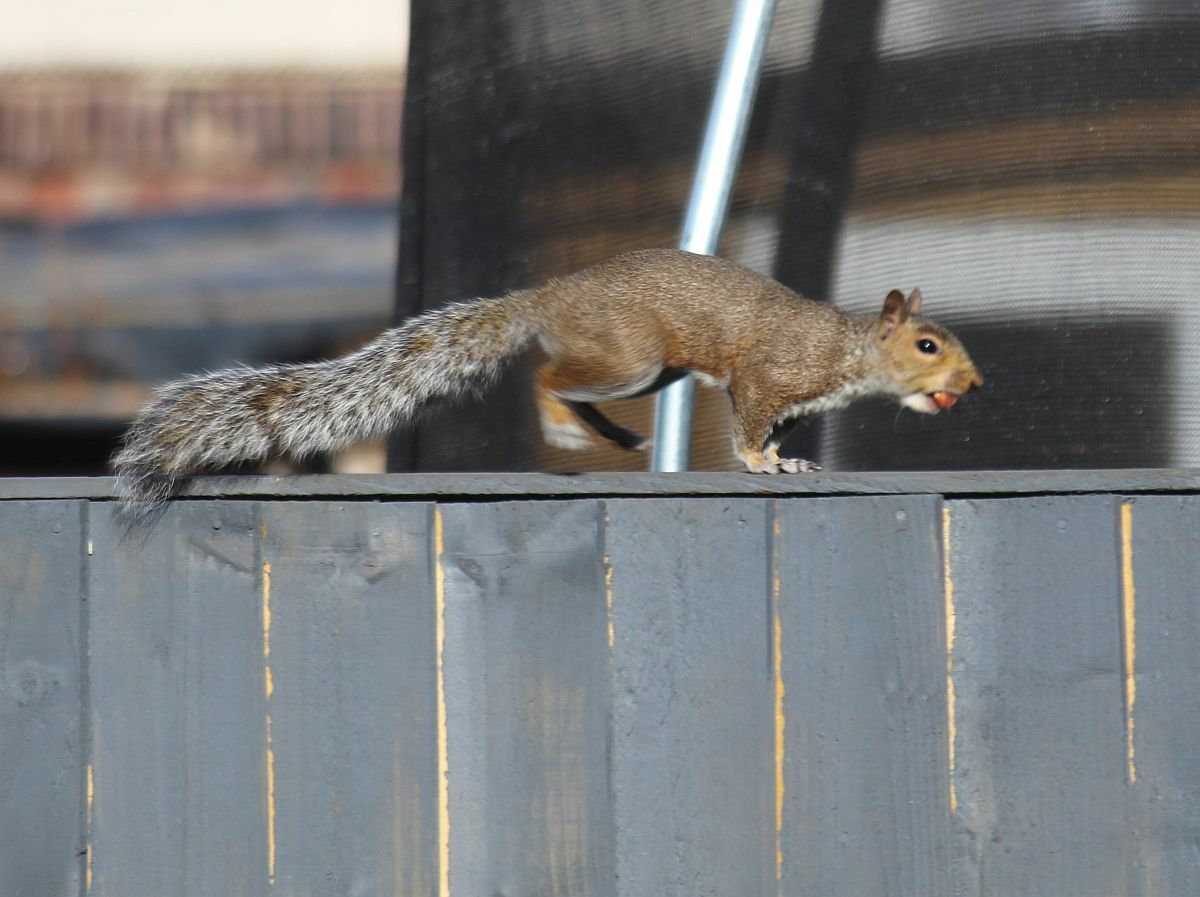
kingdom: Animalia
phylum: Chordata
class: Mammalia
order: Rodentia
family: Sciuridae
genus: Sciurus
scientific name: Sciurus carolinensis
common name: Eastern gray squirrel
